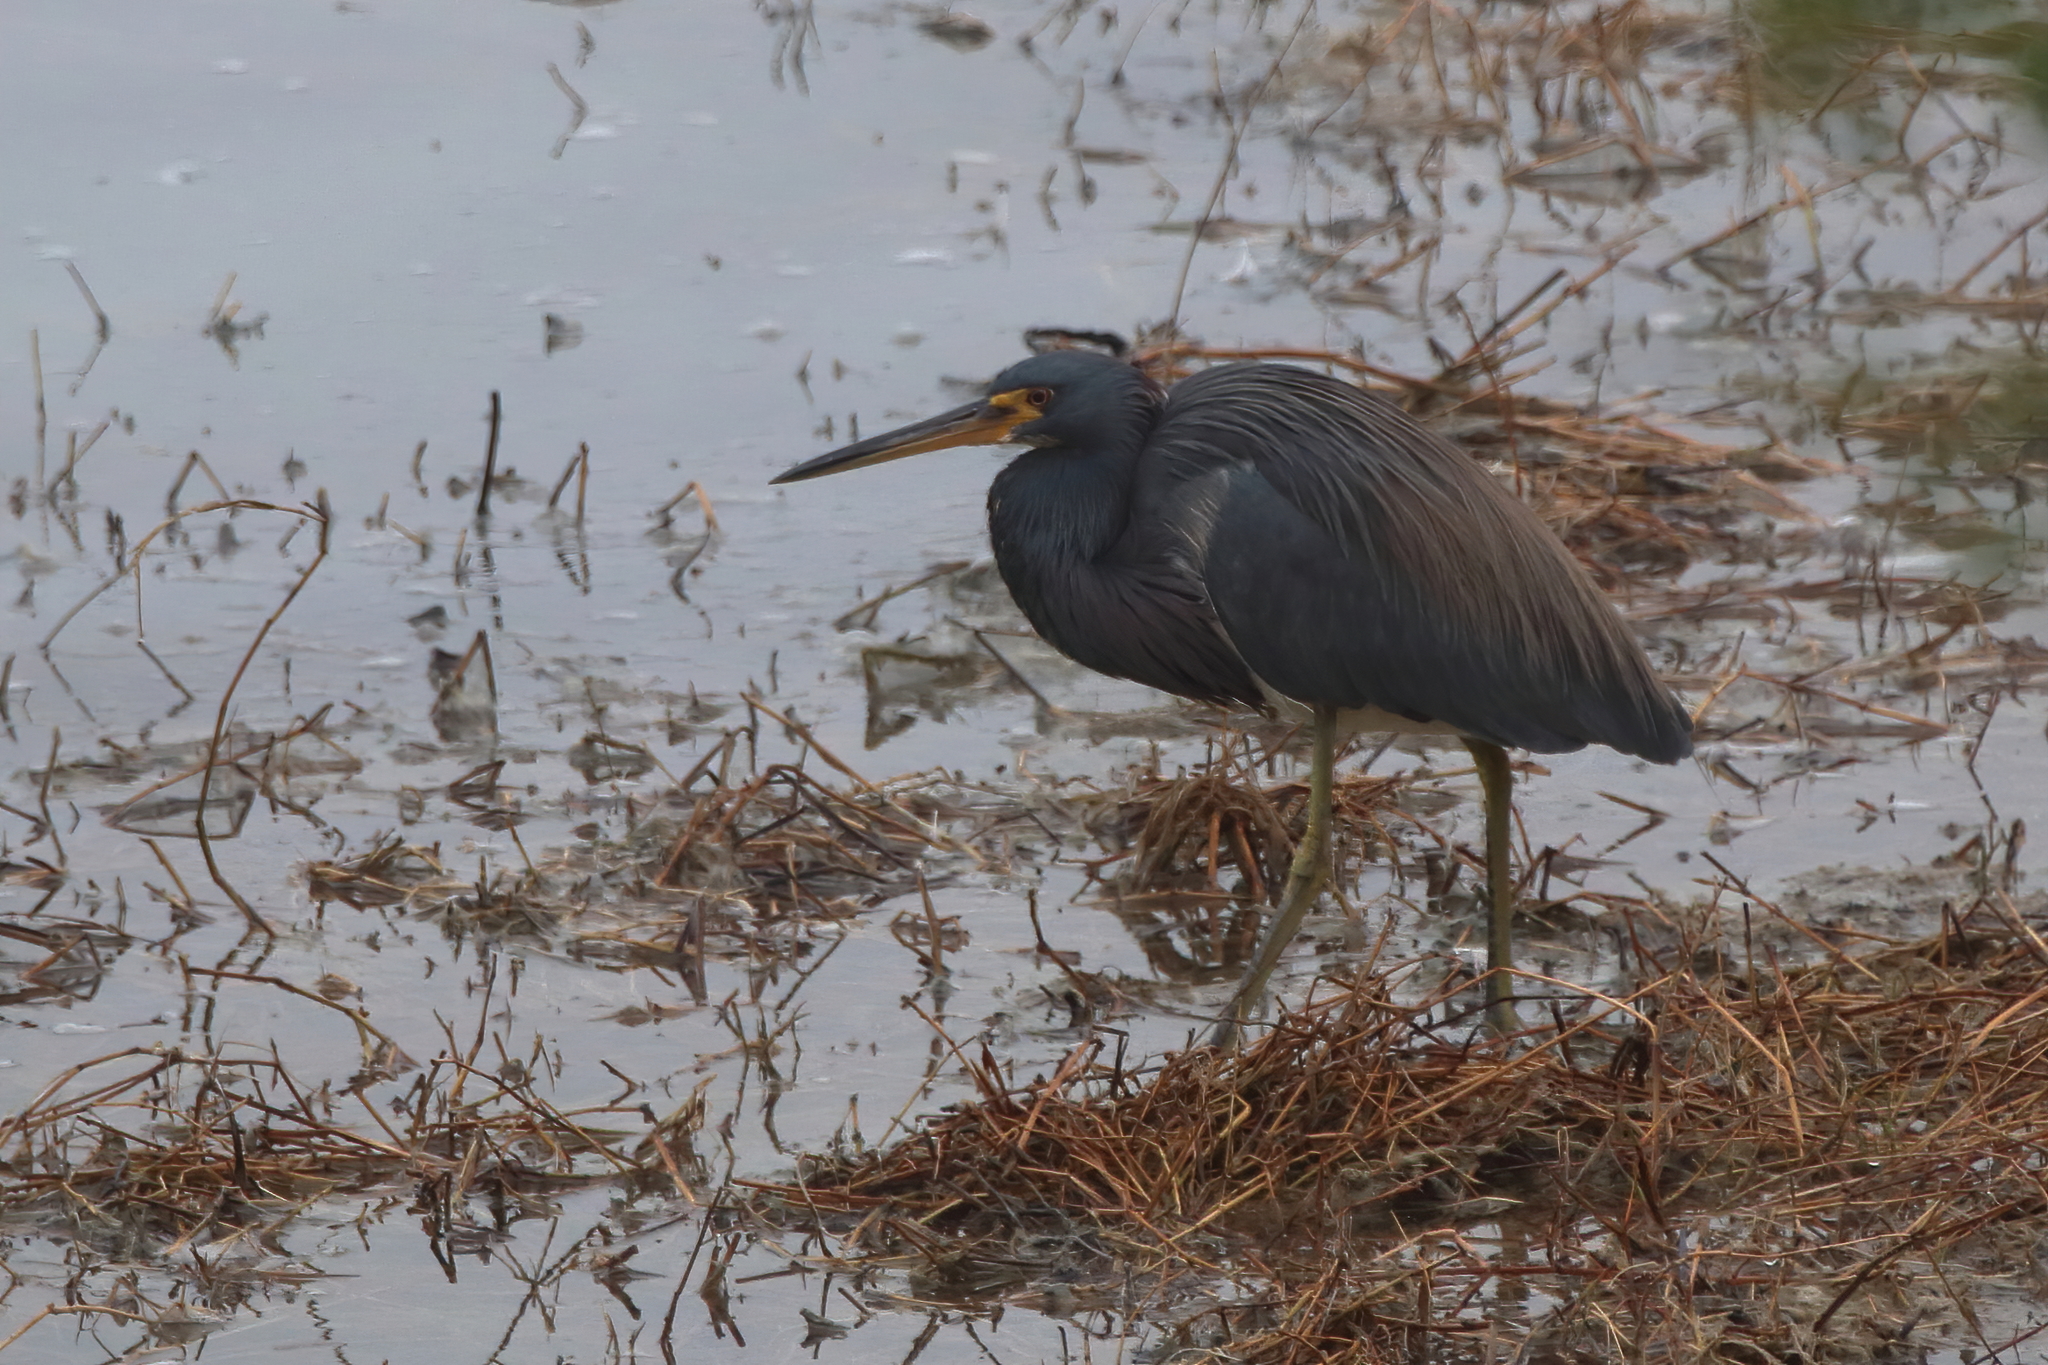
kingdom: Animalia
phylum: Chordata
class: Aves
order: Pelecaniformes
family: Ardeidae
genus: Egretta
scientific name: Egretta tricolor
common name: Tricolored heron
